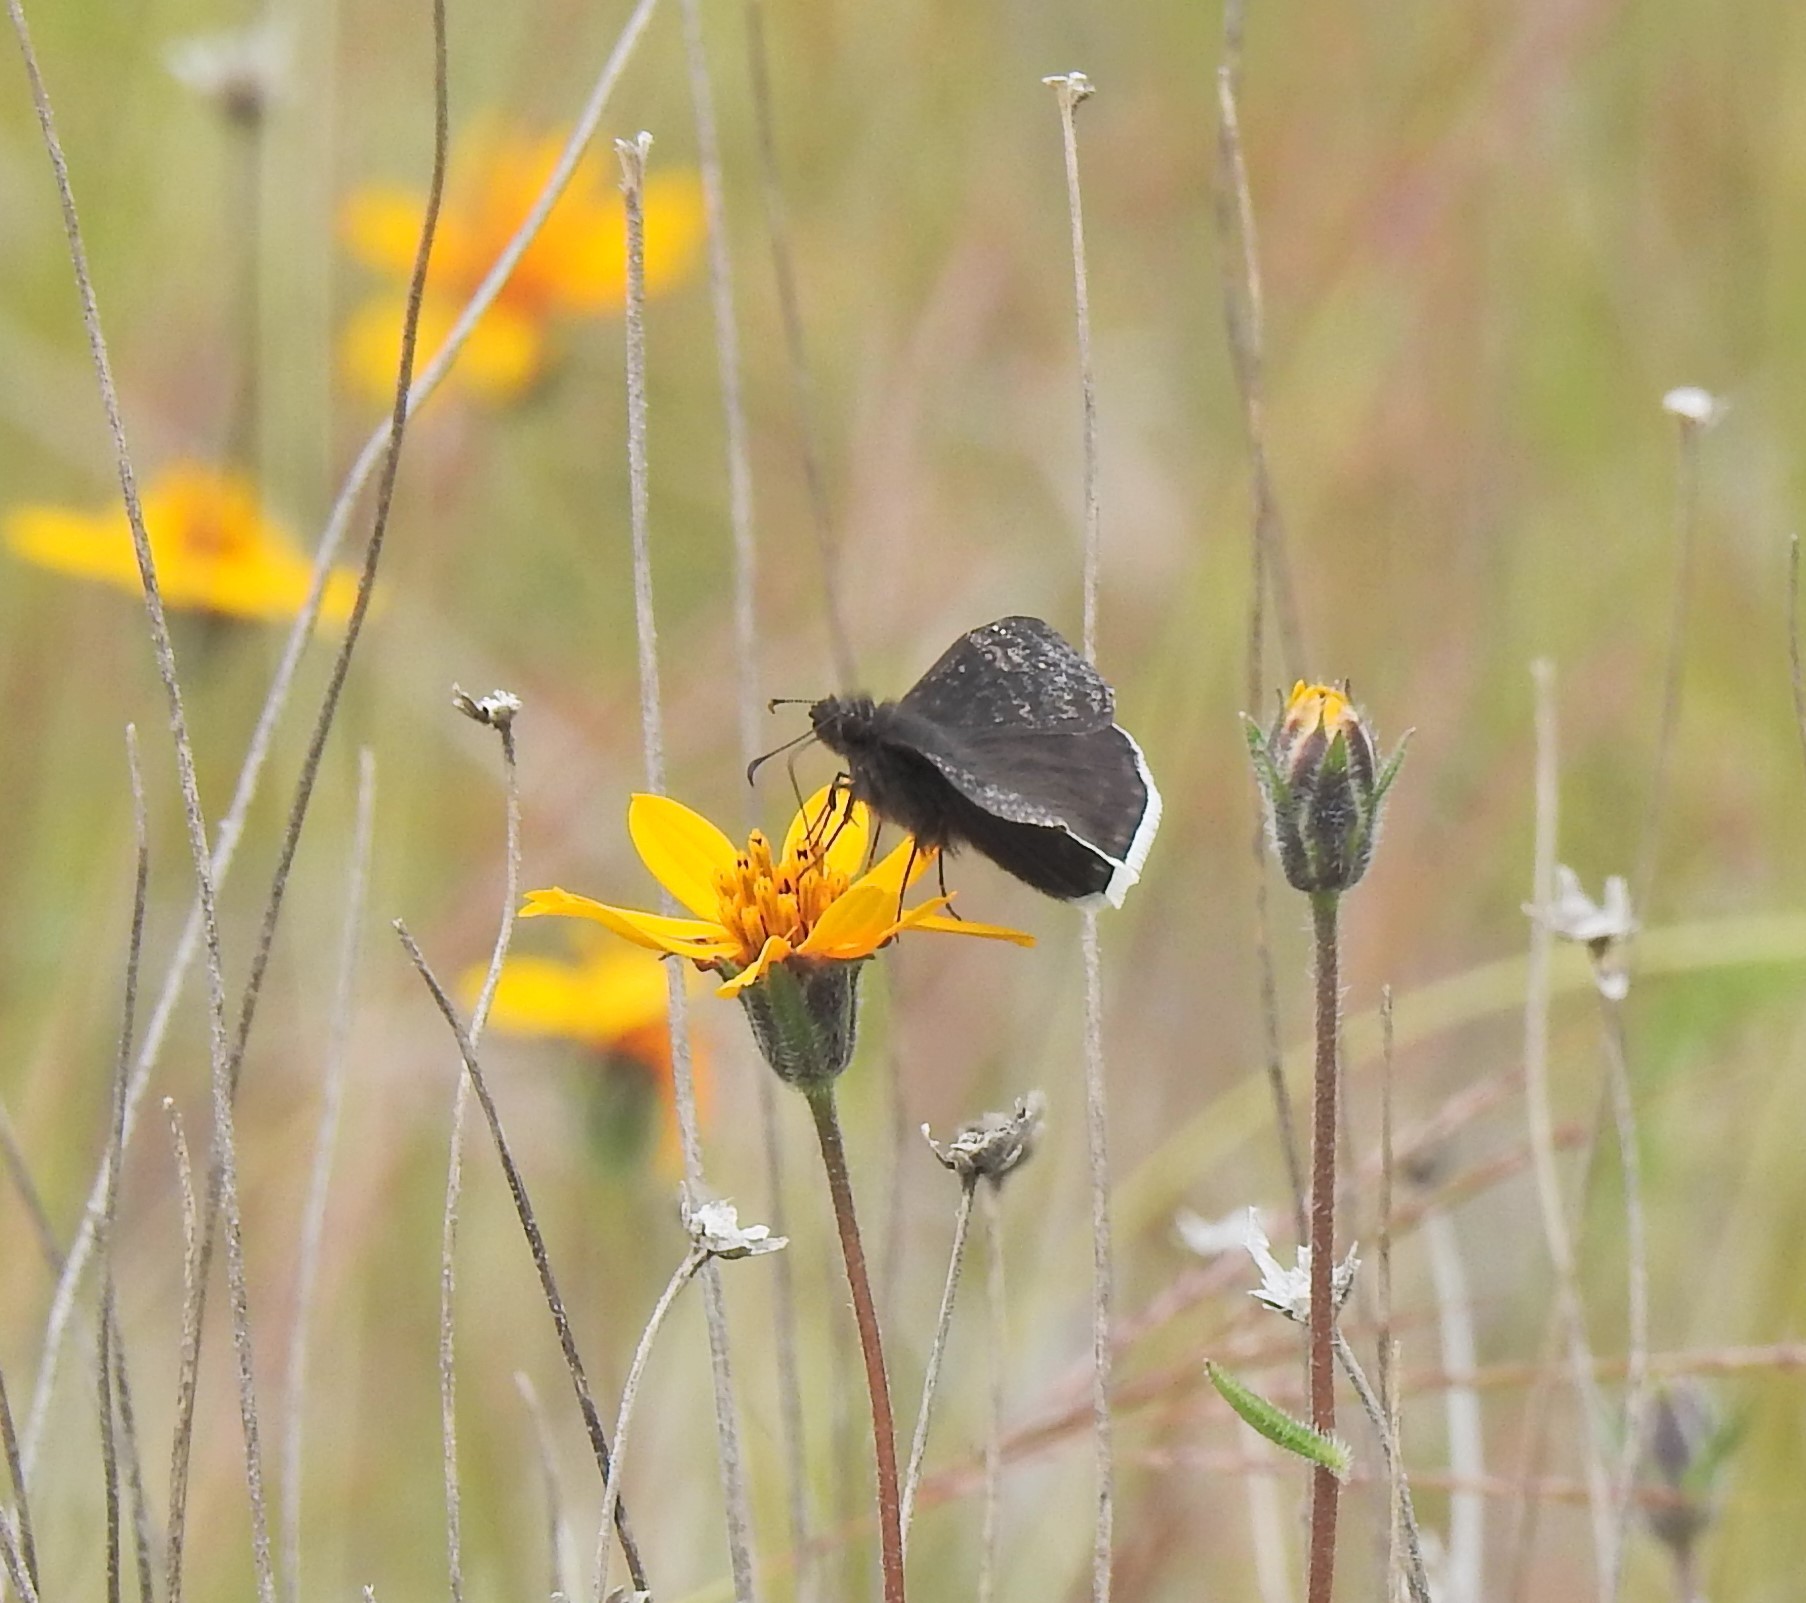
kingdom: Animalia
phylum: Arthropoda
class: Insecta
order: Lepidoptera
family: Hesperiidae
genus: Erynnis
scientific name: Erynnis funeralis
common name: Funereal duskywing
